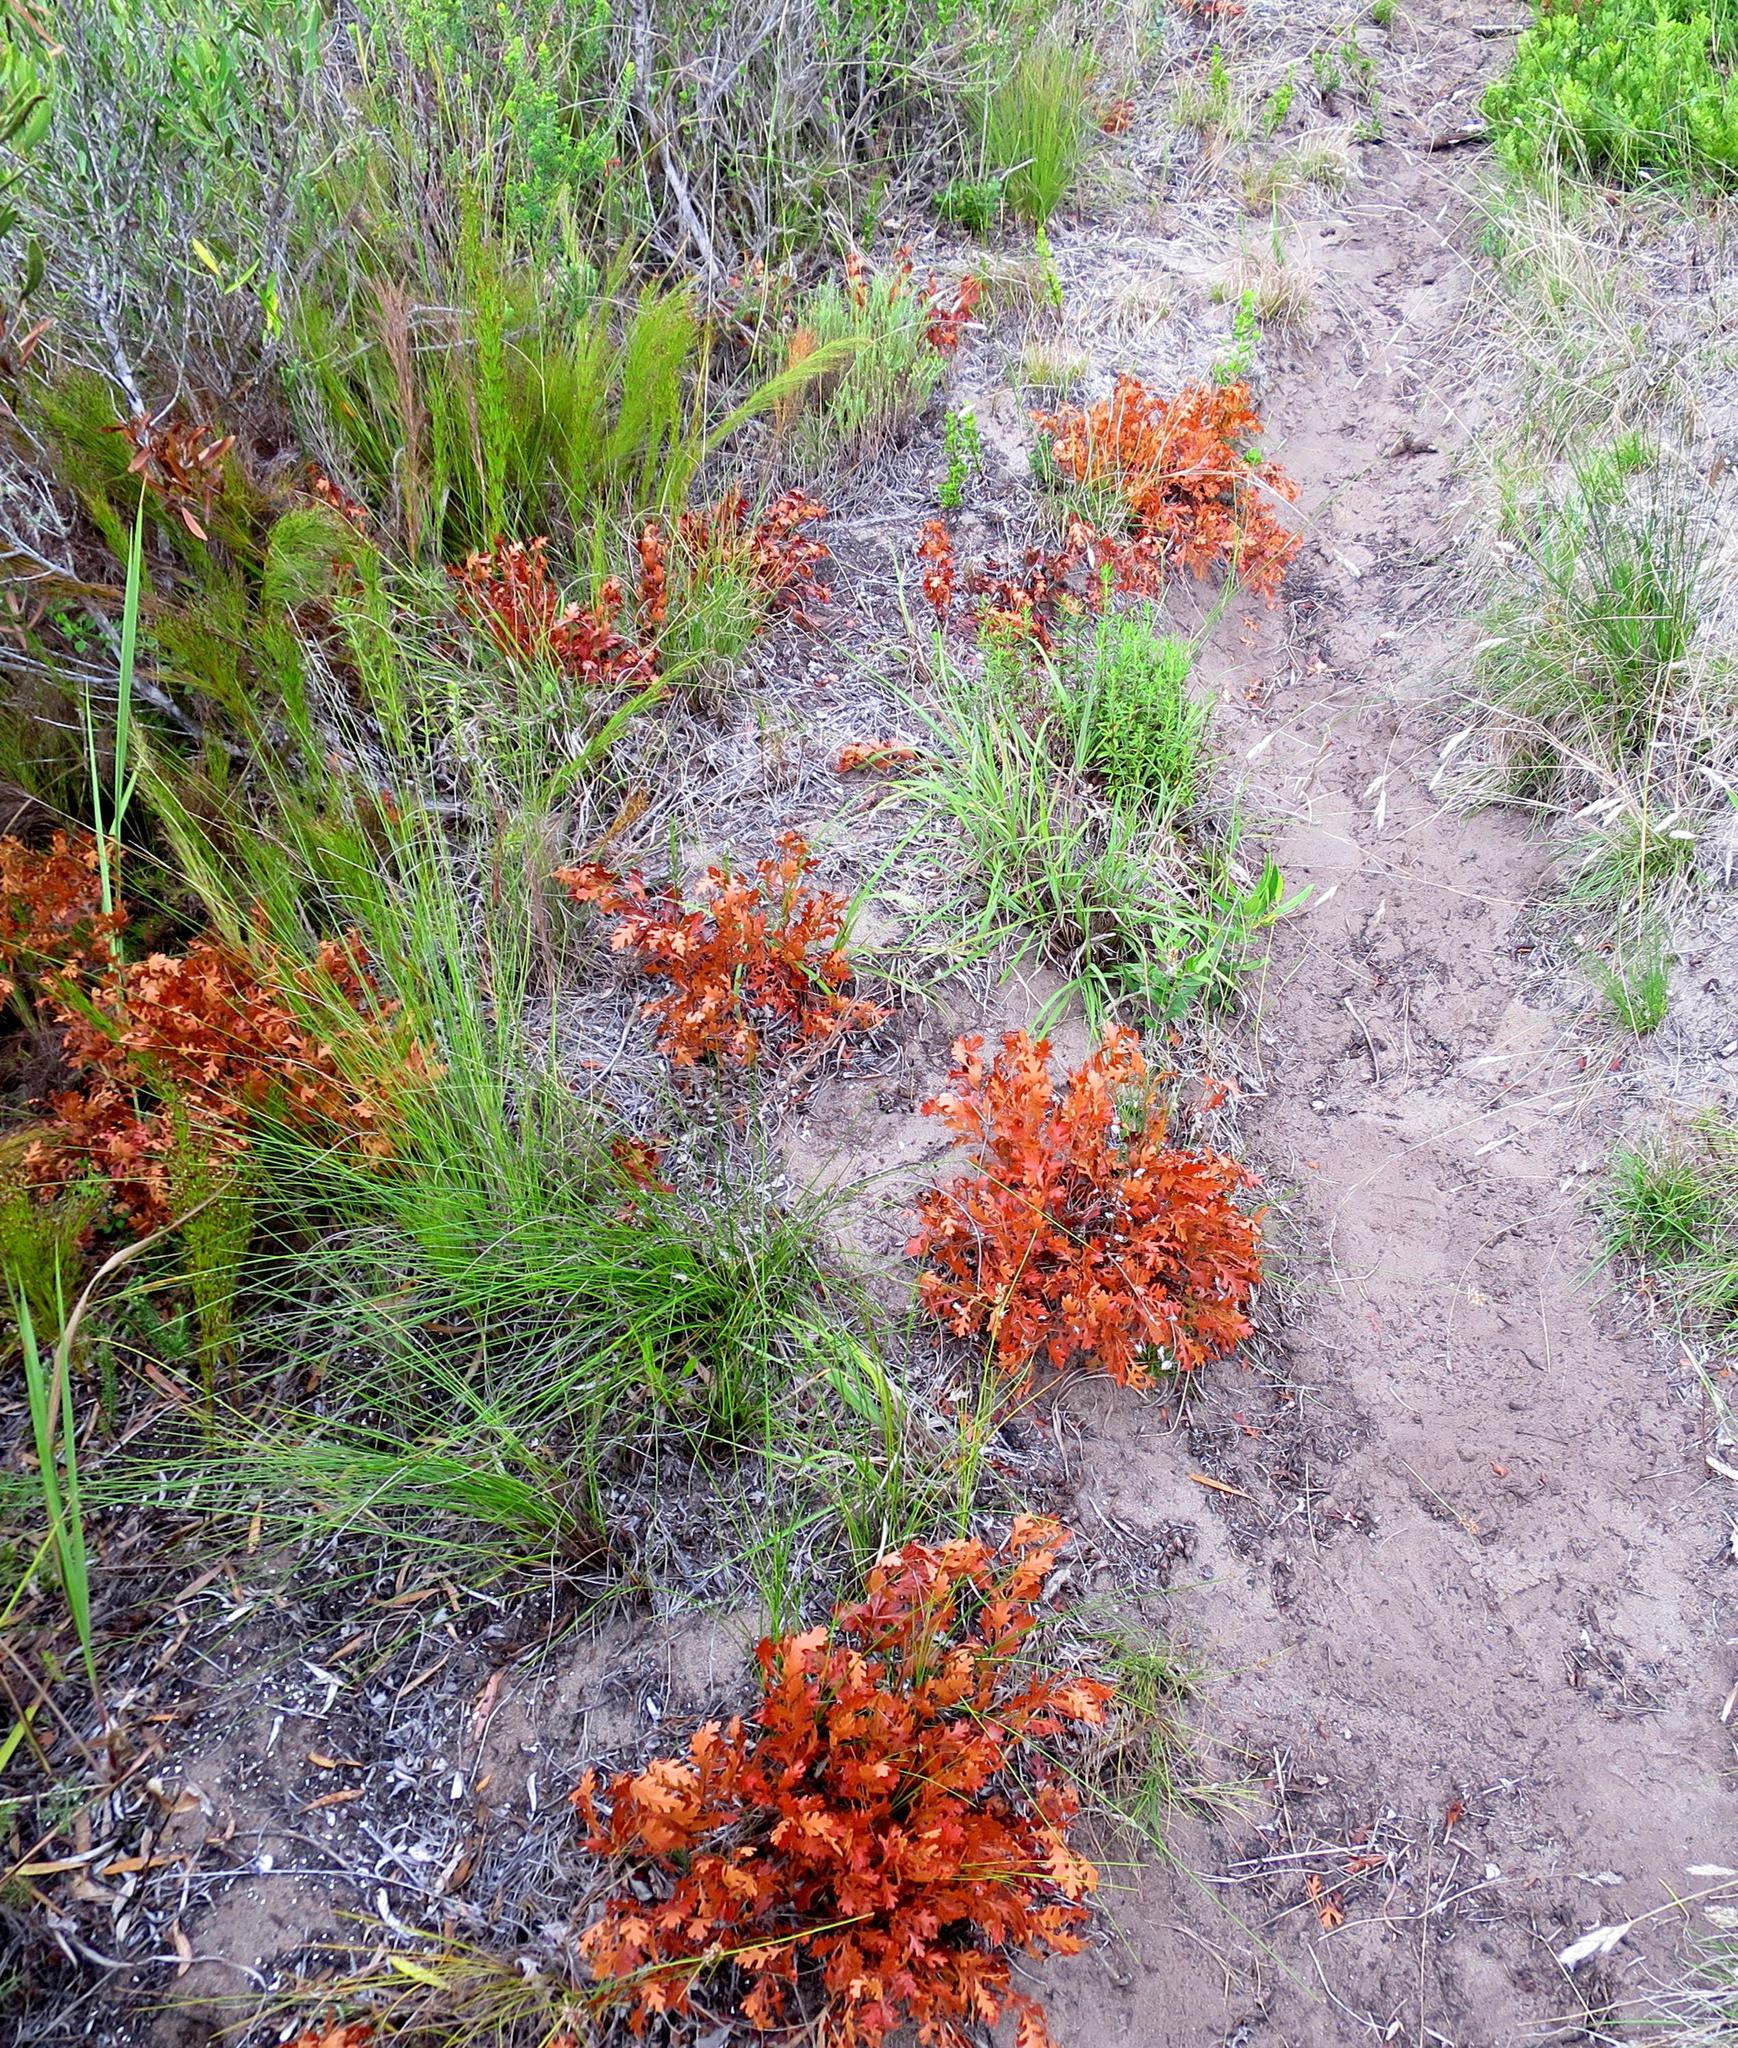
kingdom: Plantae
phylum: Tracheophyta
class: Magnoliopsida
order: Fagales
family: Myricaceae
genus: Morella
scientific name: Morella quercifolia
